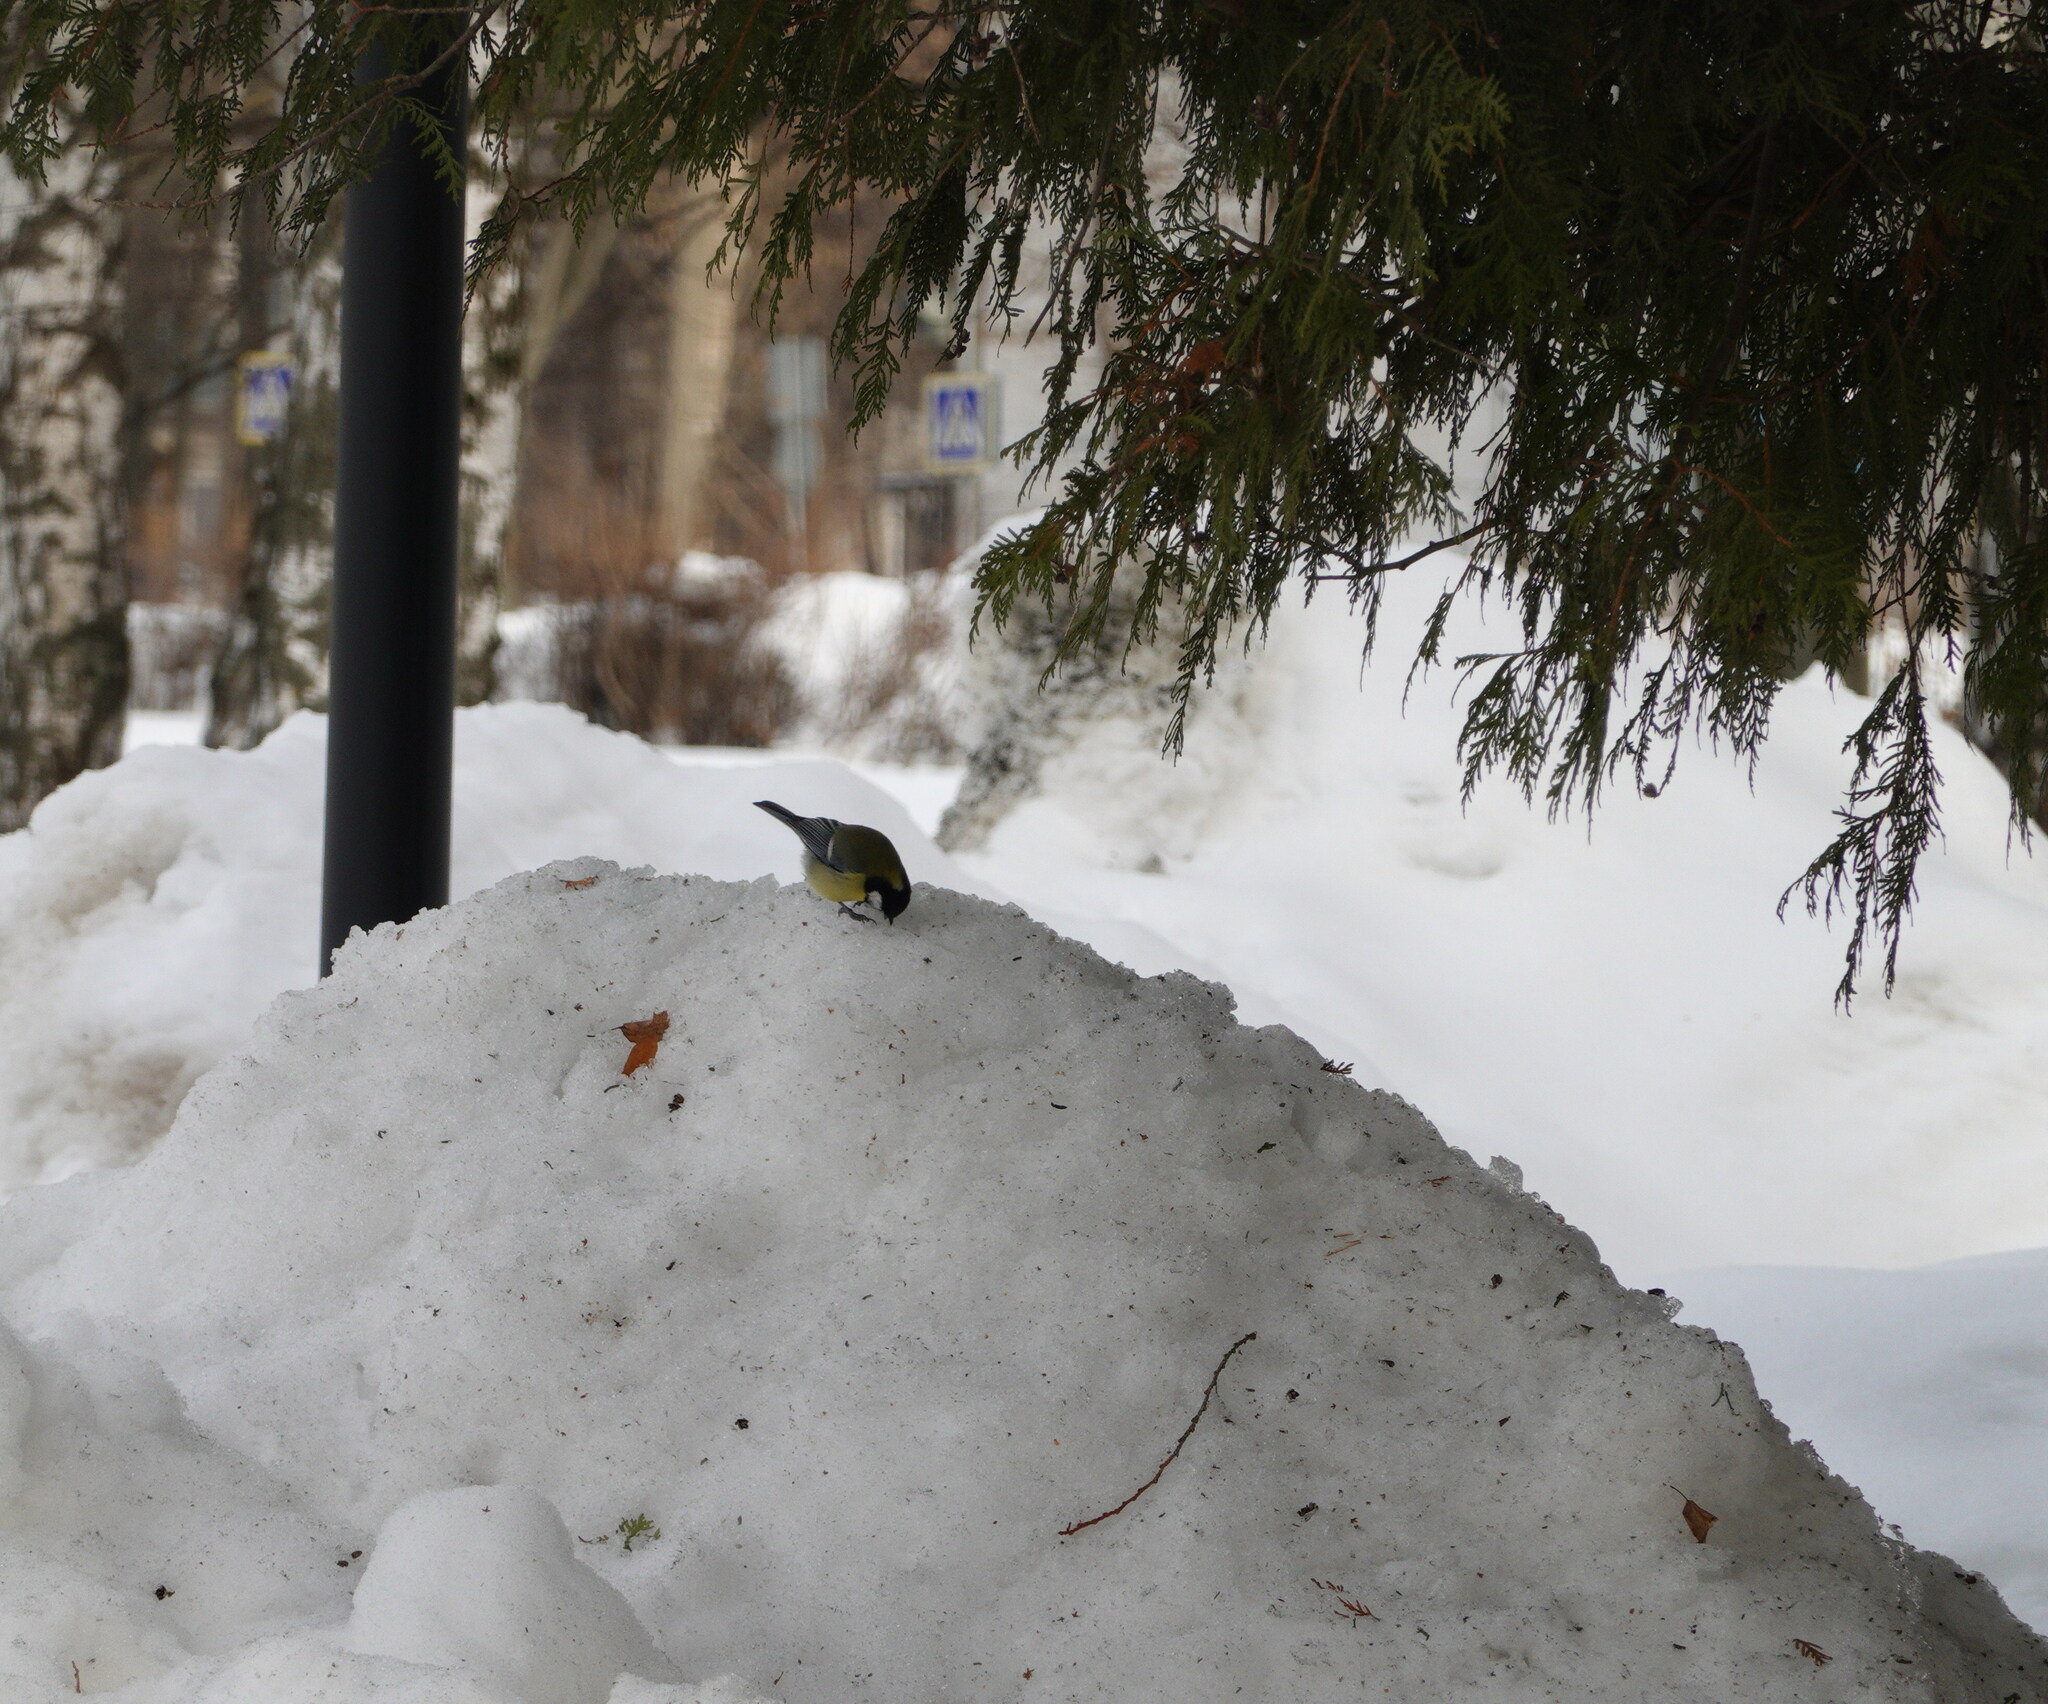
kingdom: Animalia
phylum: Chordata
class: Aves
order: Passeriformes
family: Paridae
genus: Parus
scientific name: Parus major
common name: Great tit
